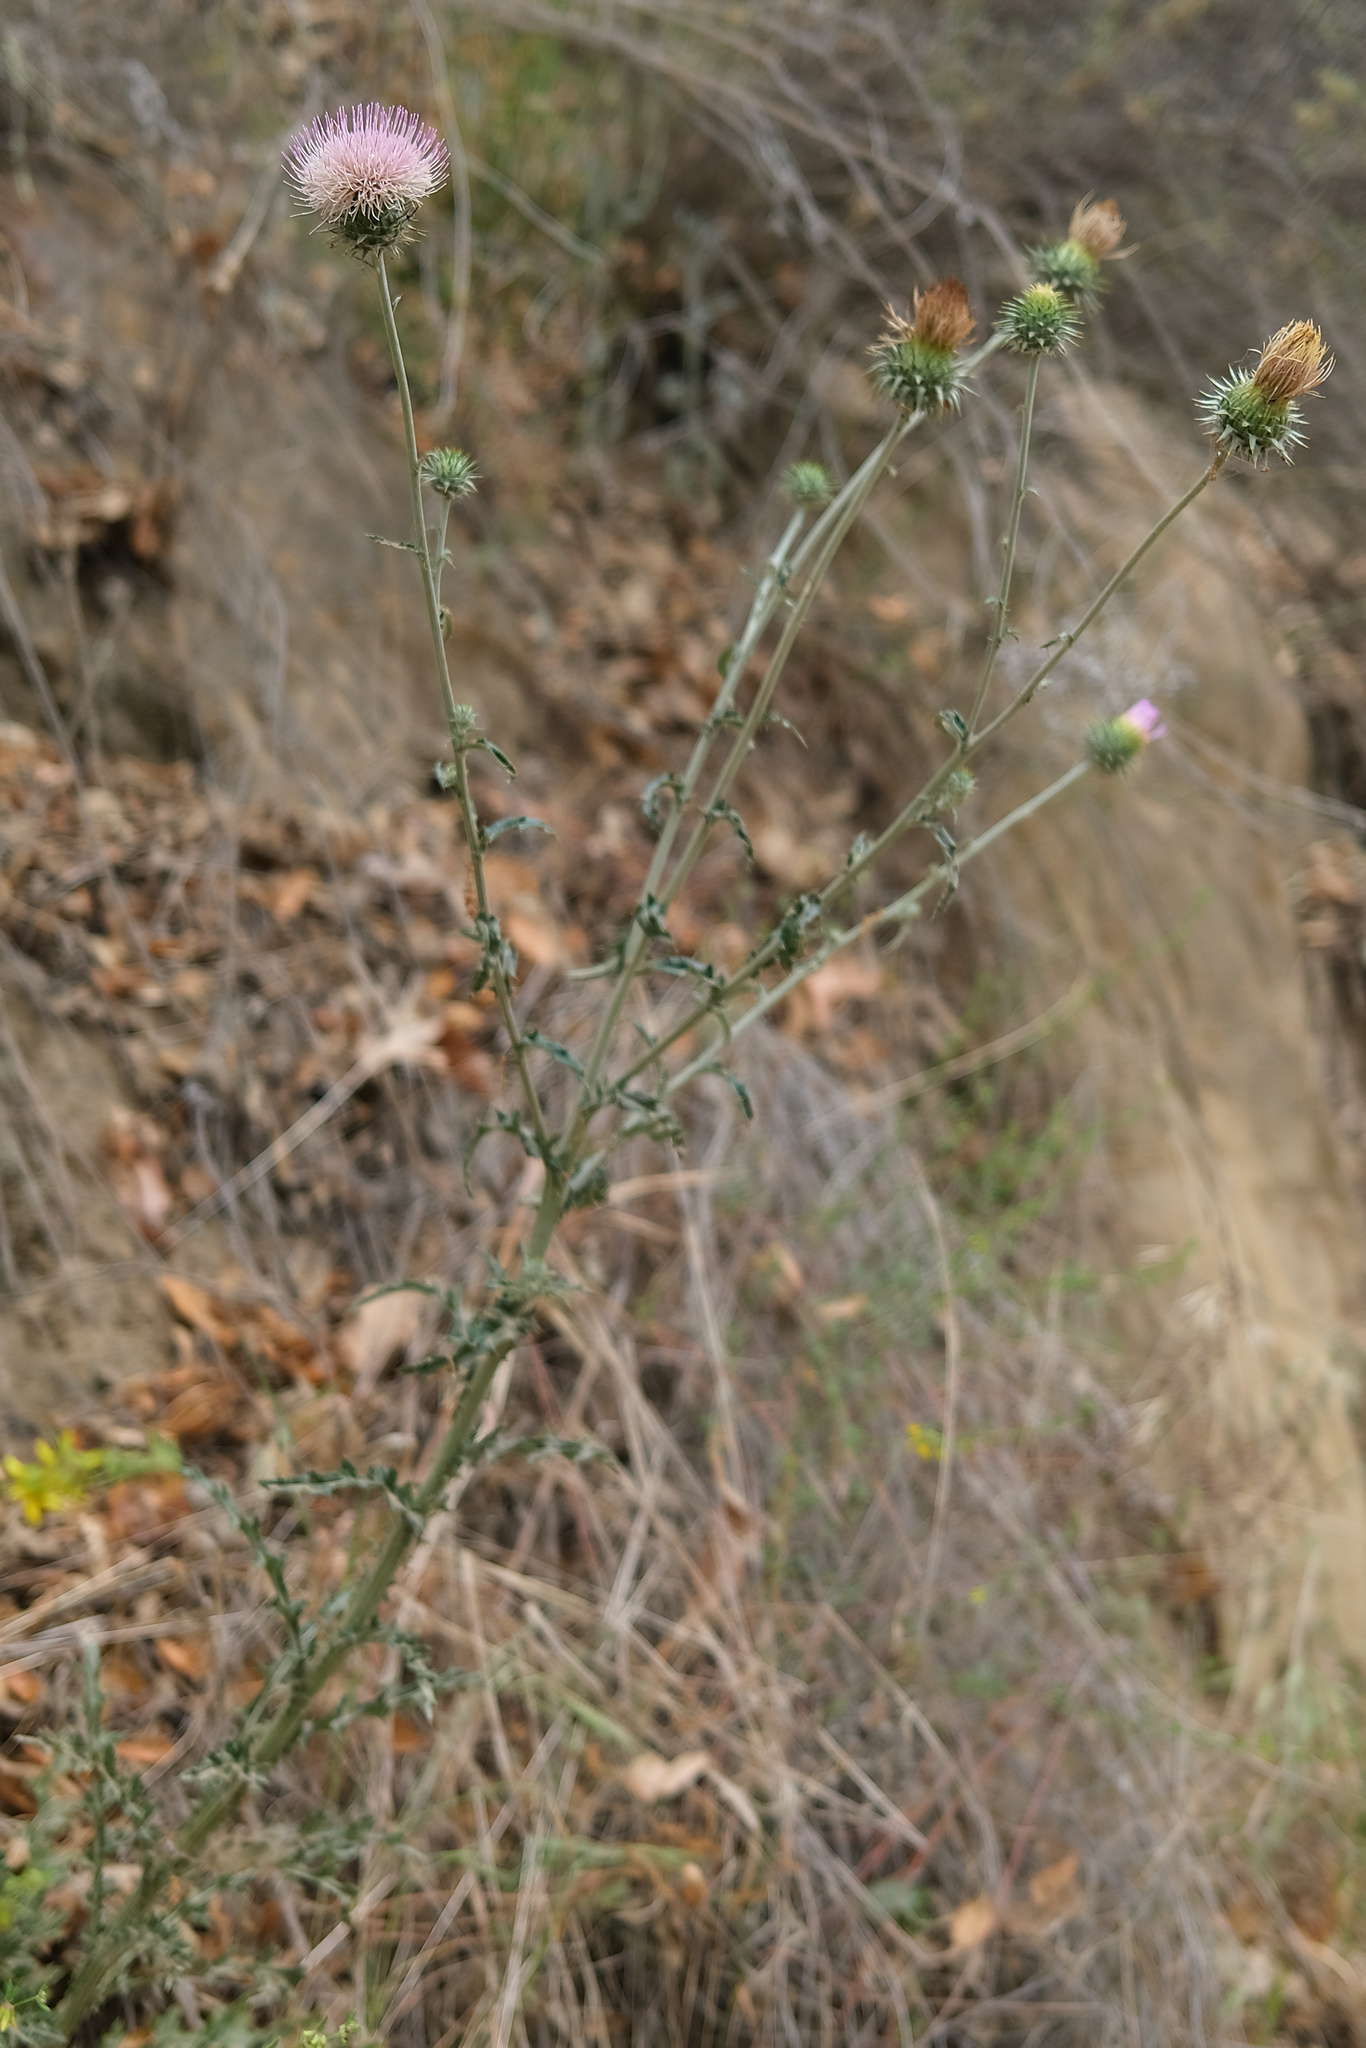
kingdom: Plantae
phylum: Tracheophyta
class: Magnoliopsida
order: Asterales
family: Asteraceae
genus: Cirsium
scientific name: Cirsium occidentale
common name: Western thistle
